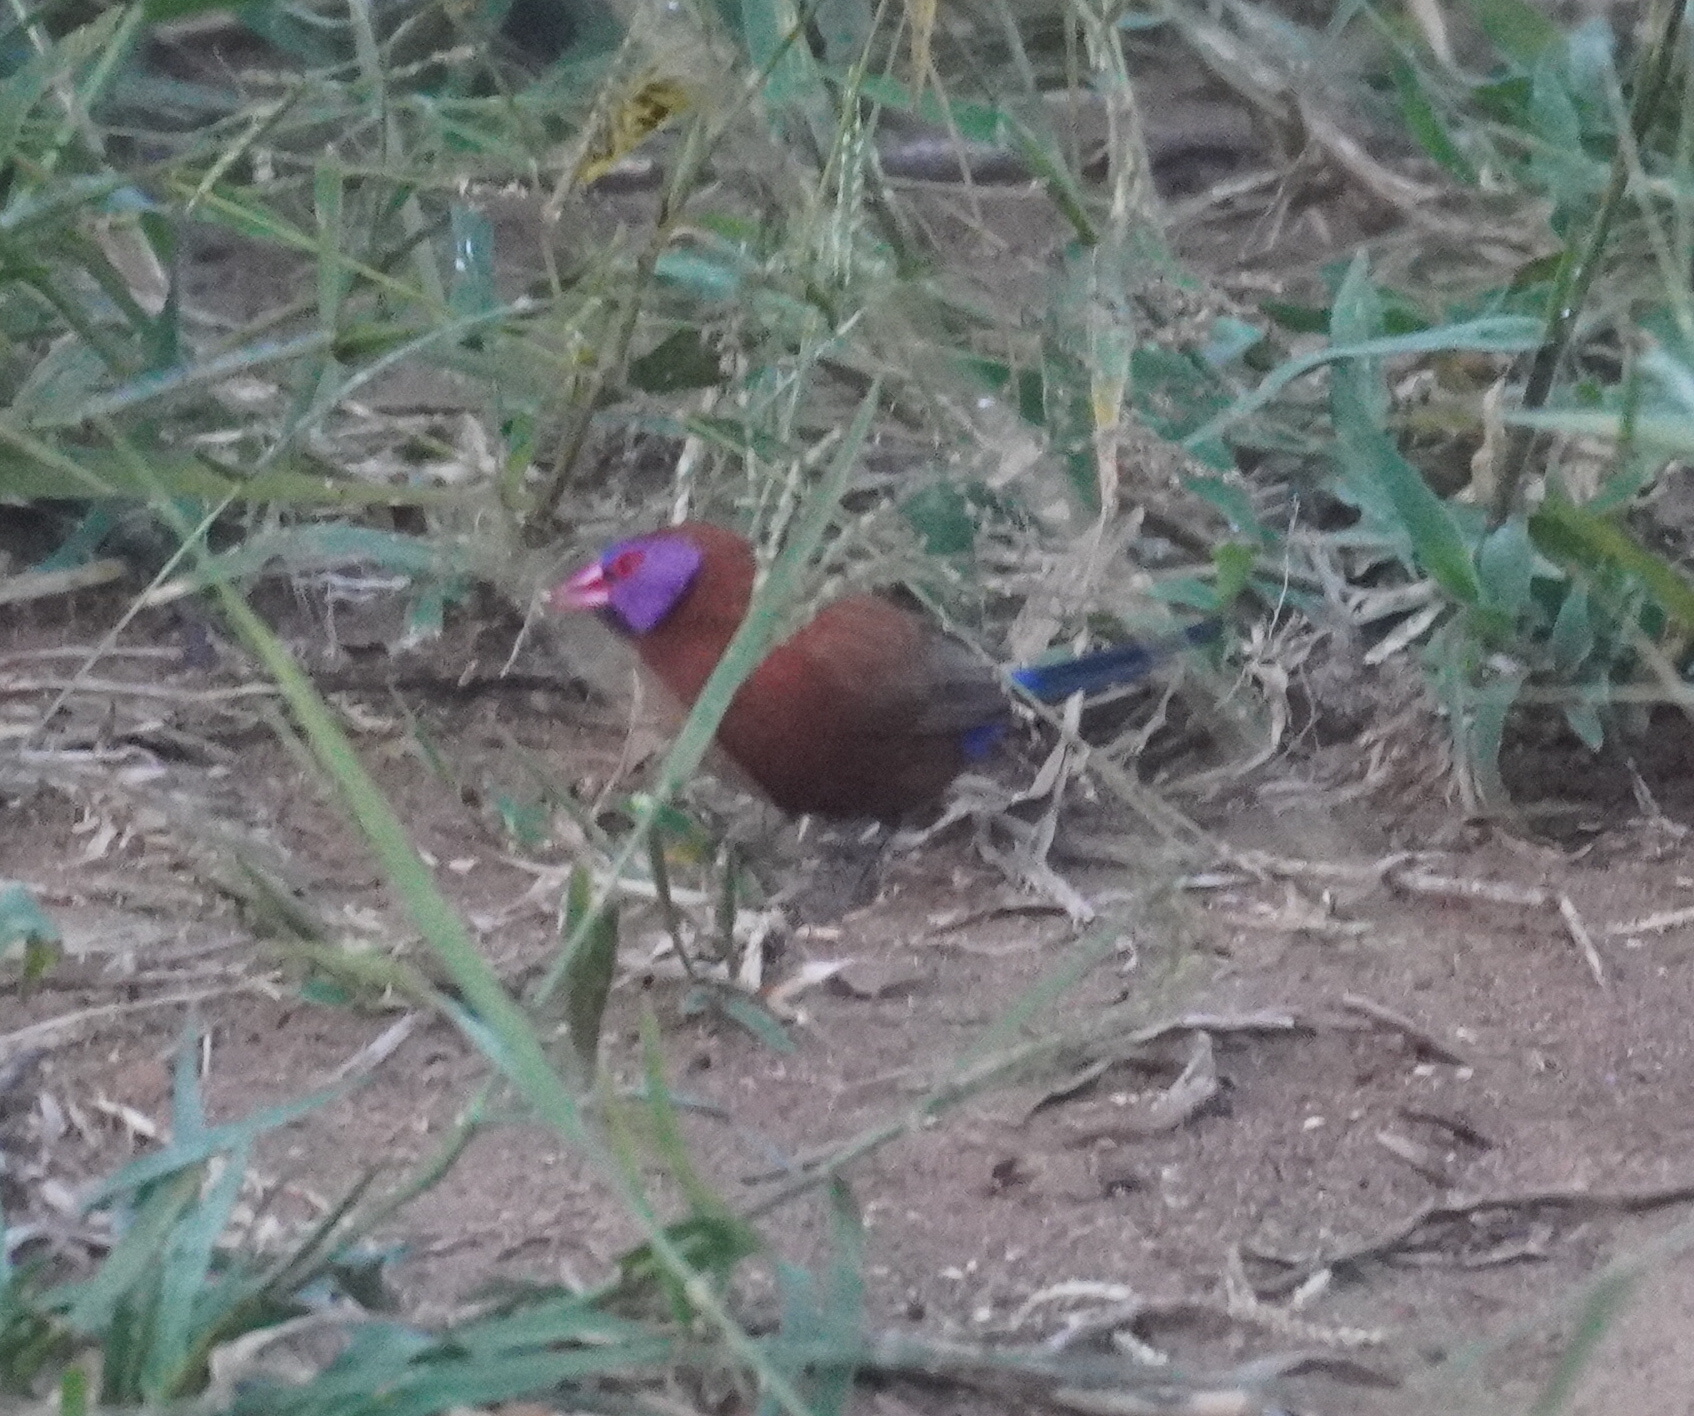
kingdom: Animalia
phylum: Chordata
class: Aves
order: Passeriformes
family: Estrildidae
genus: Uraeginthus
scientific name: Uraeginthus granatinus
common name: Violet-eared waxbill
